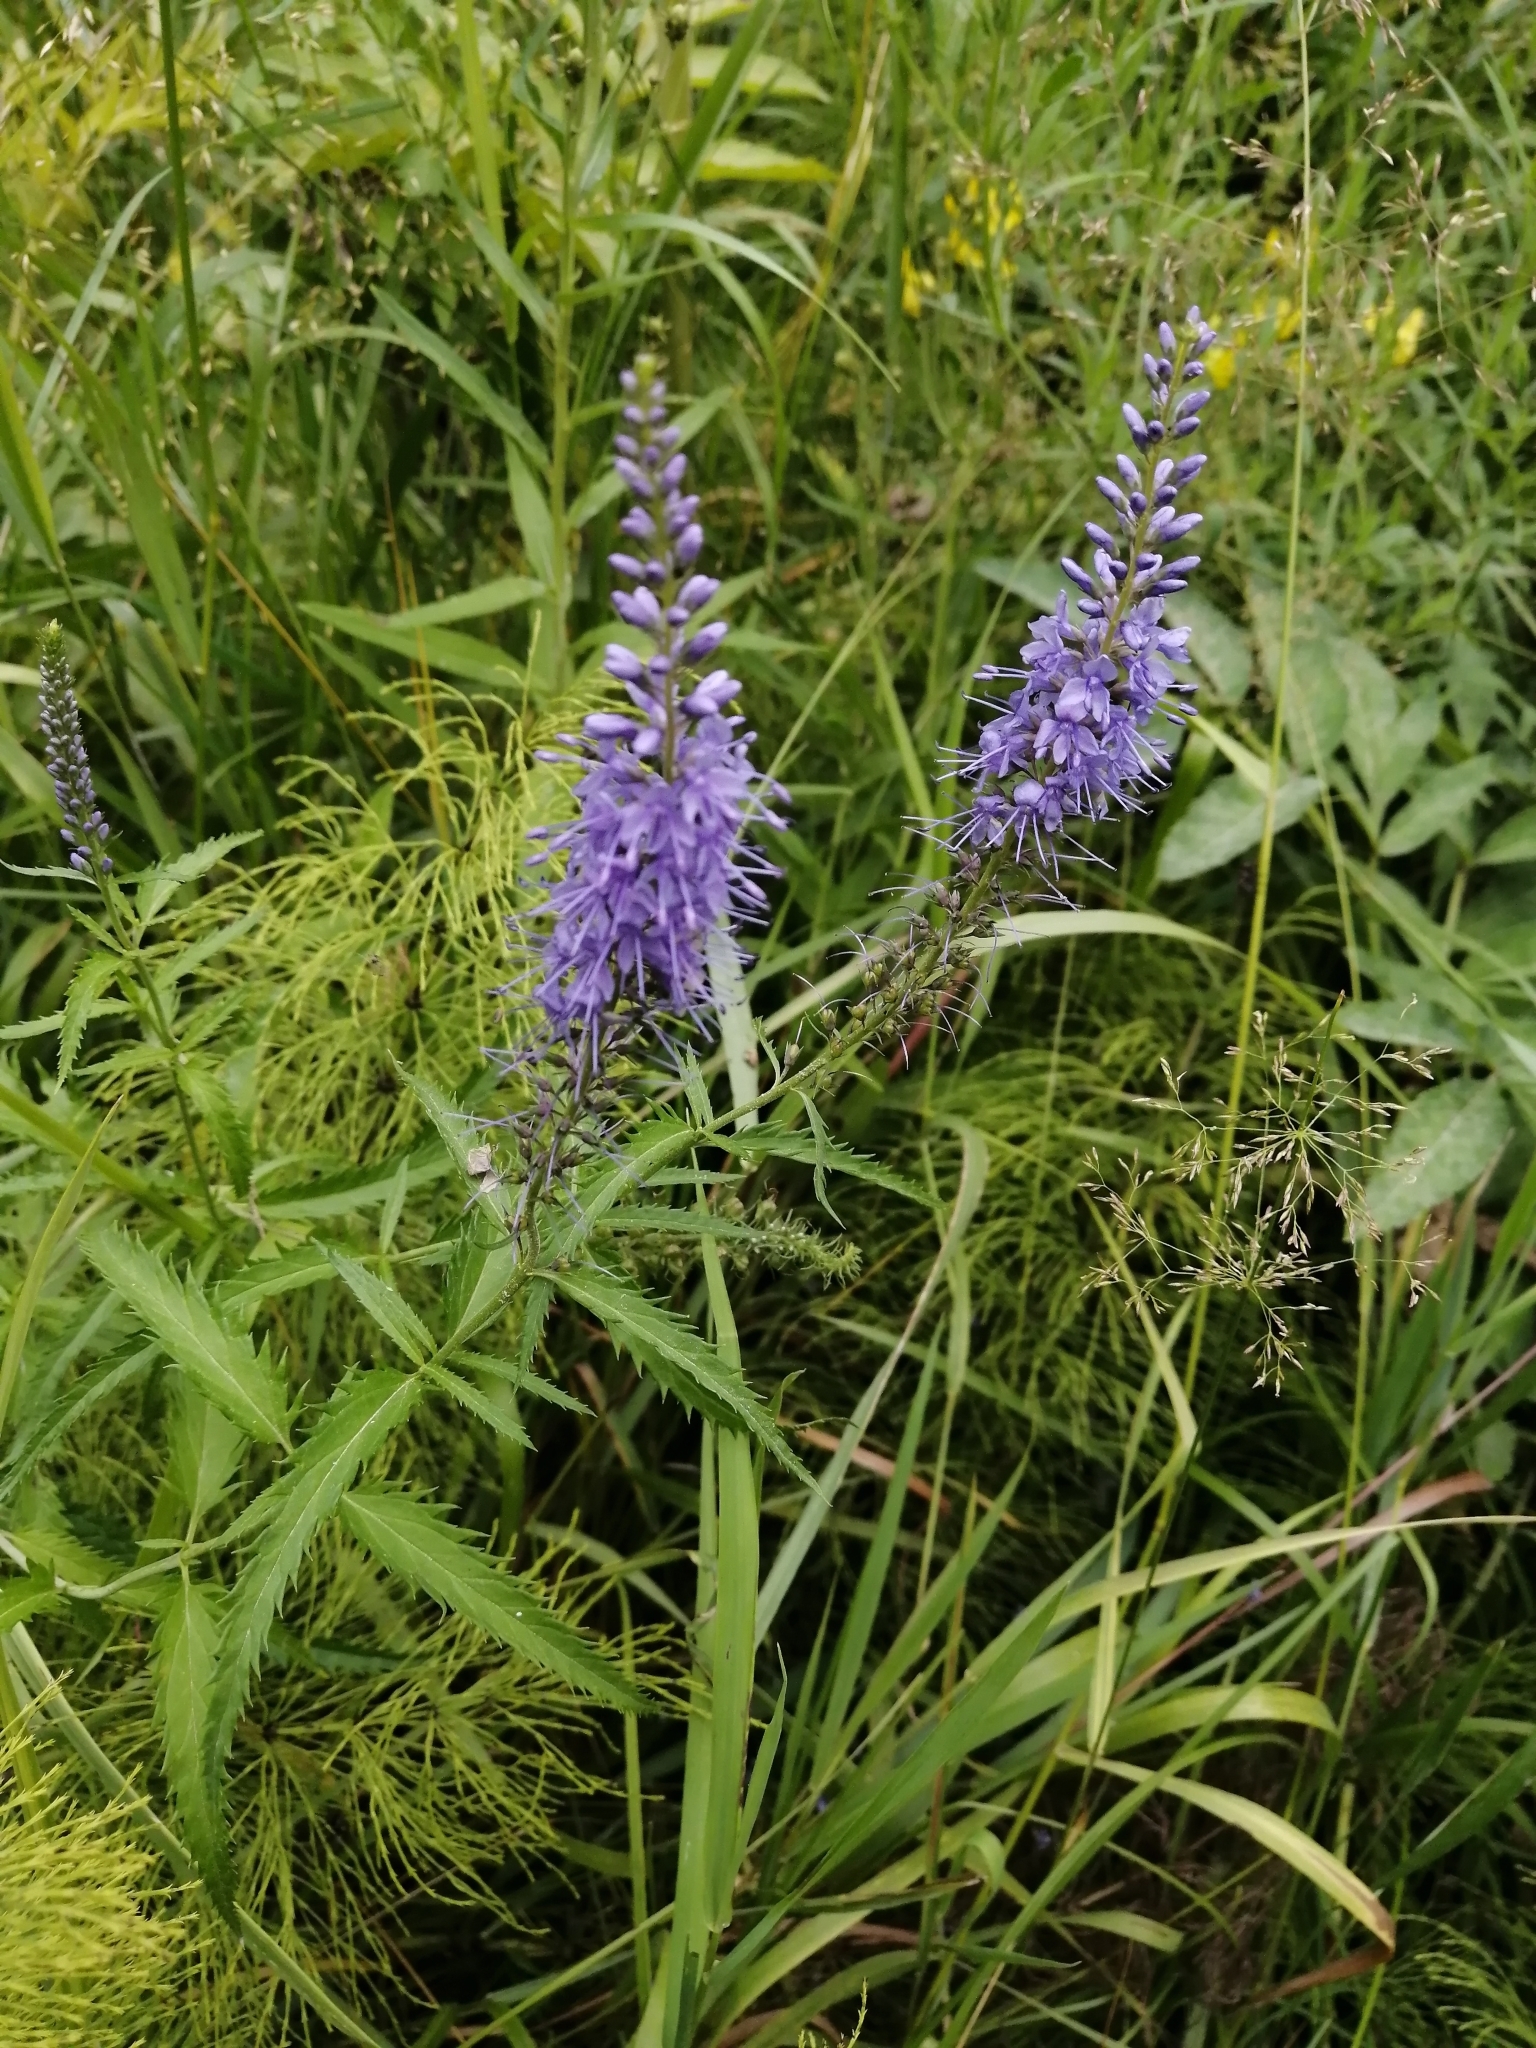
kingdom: Plantae
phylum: Tracheophyta
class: Magnoliopsida
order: Lamiales
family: Plantaginaceae
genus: Veronica
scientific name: Veronica longifolia
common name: Garden speedwell
